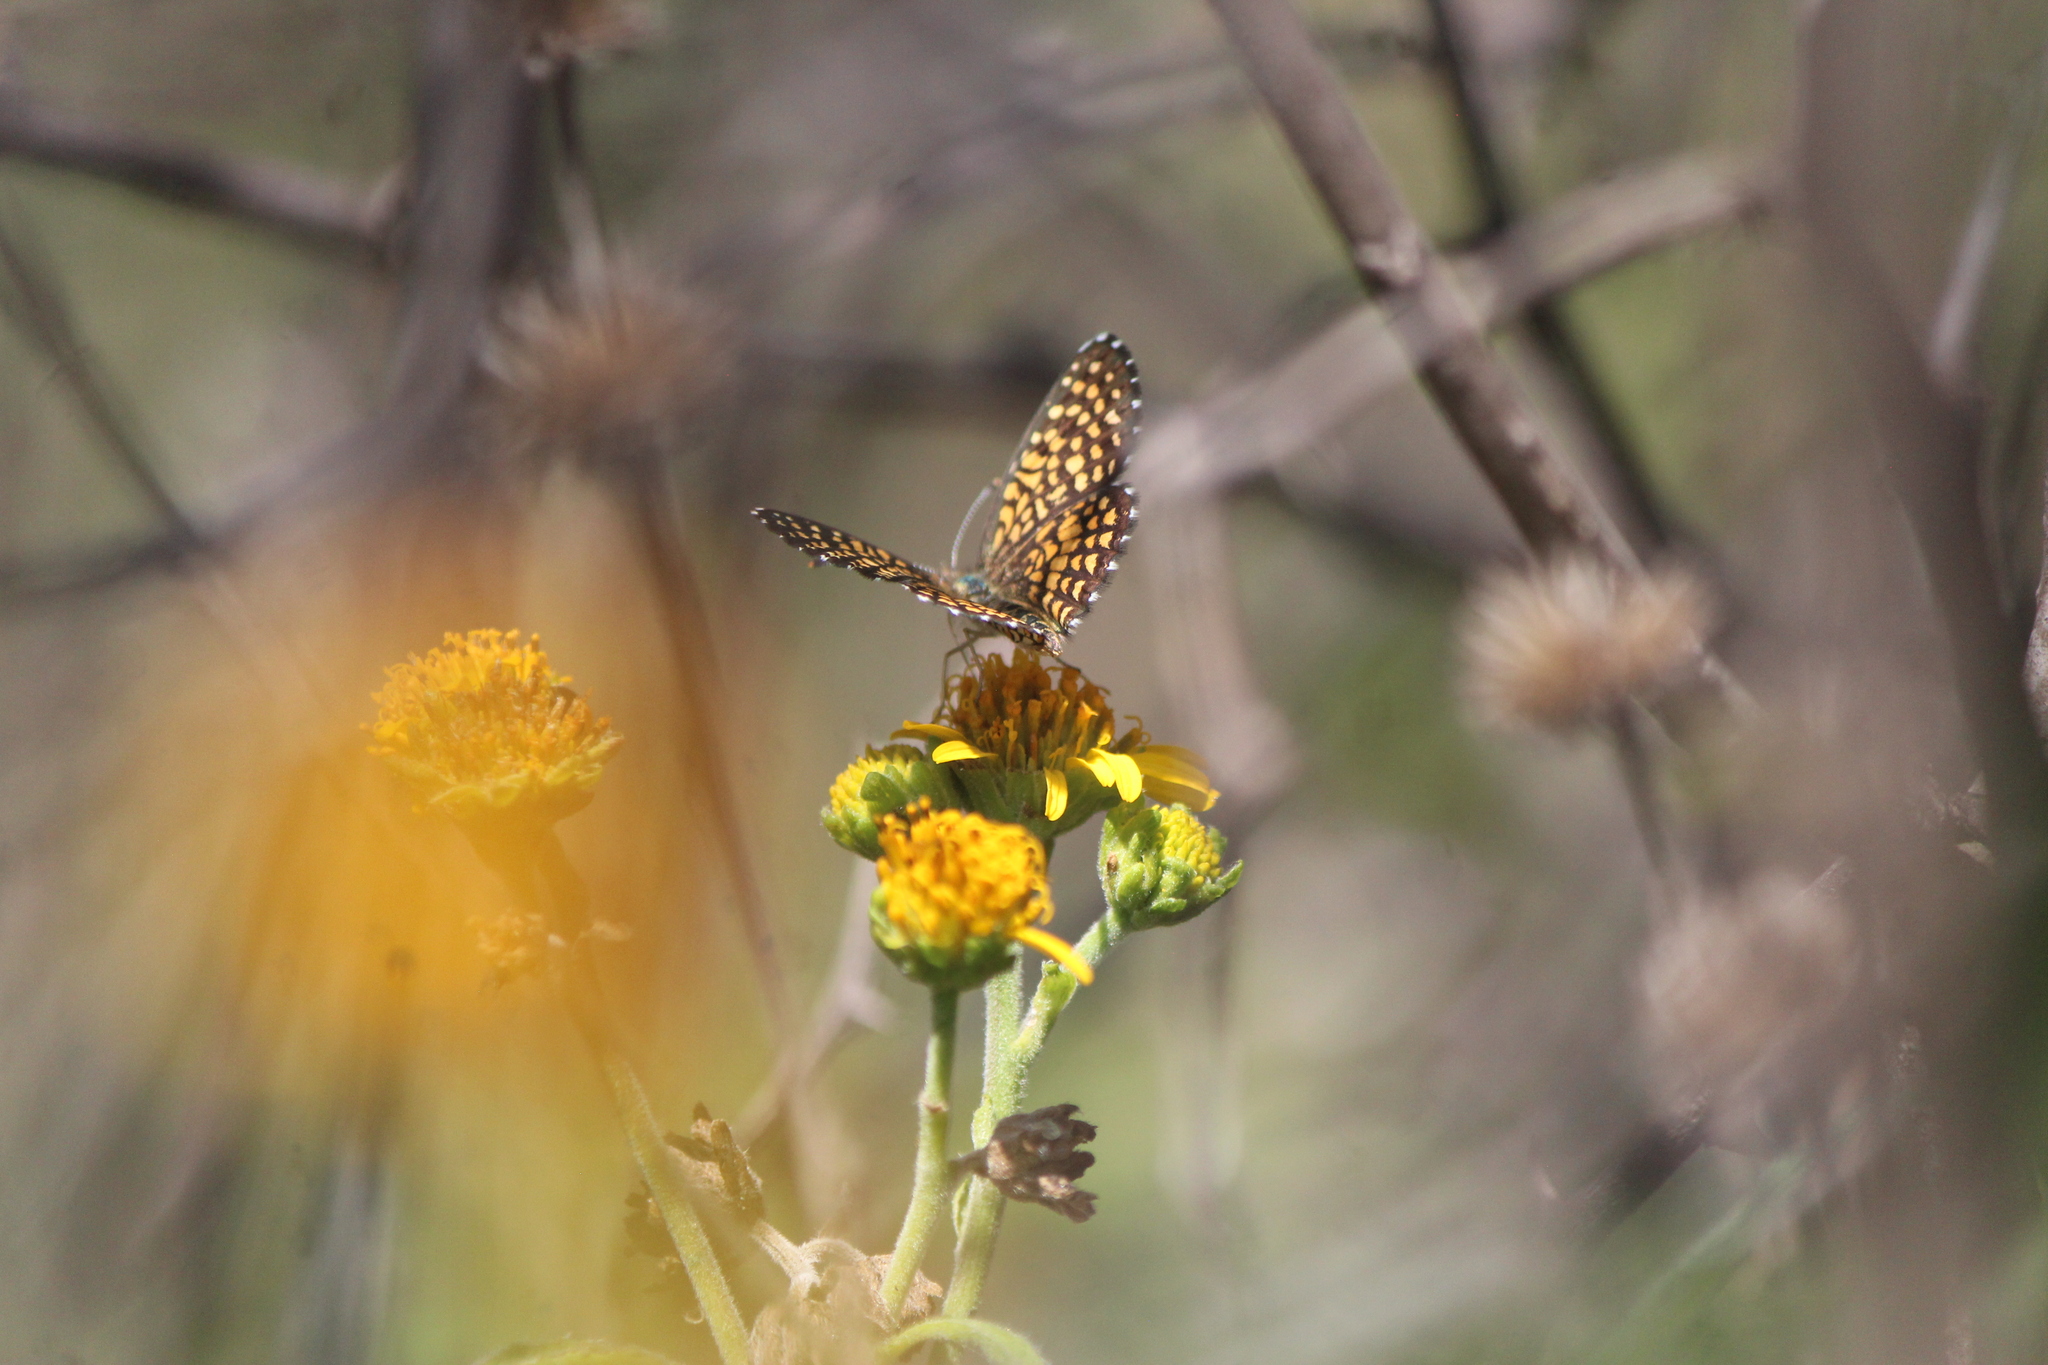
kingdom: Animalia
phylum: Arthropoda
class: Insecta
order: Lepidoptera
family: Nymphalidae
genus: Texola
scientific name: Texola elada
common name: Elada checkerspot
